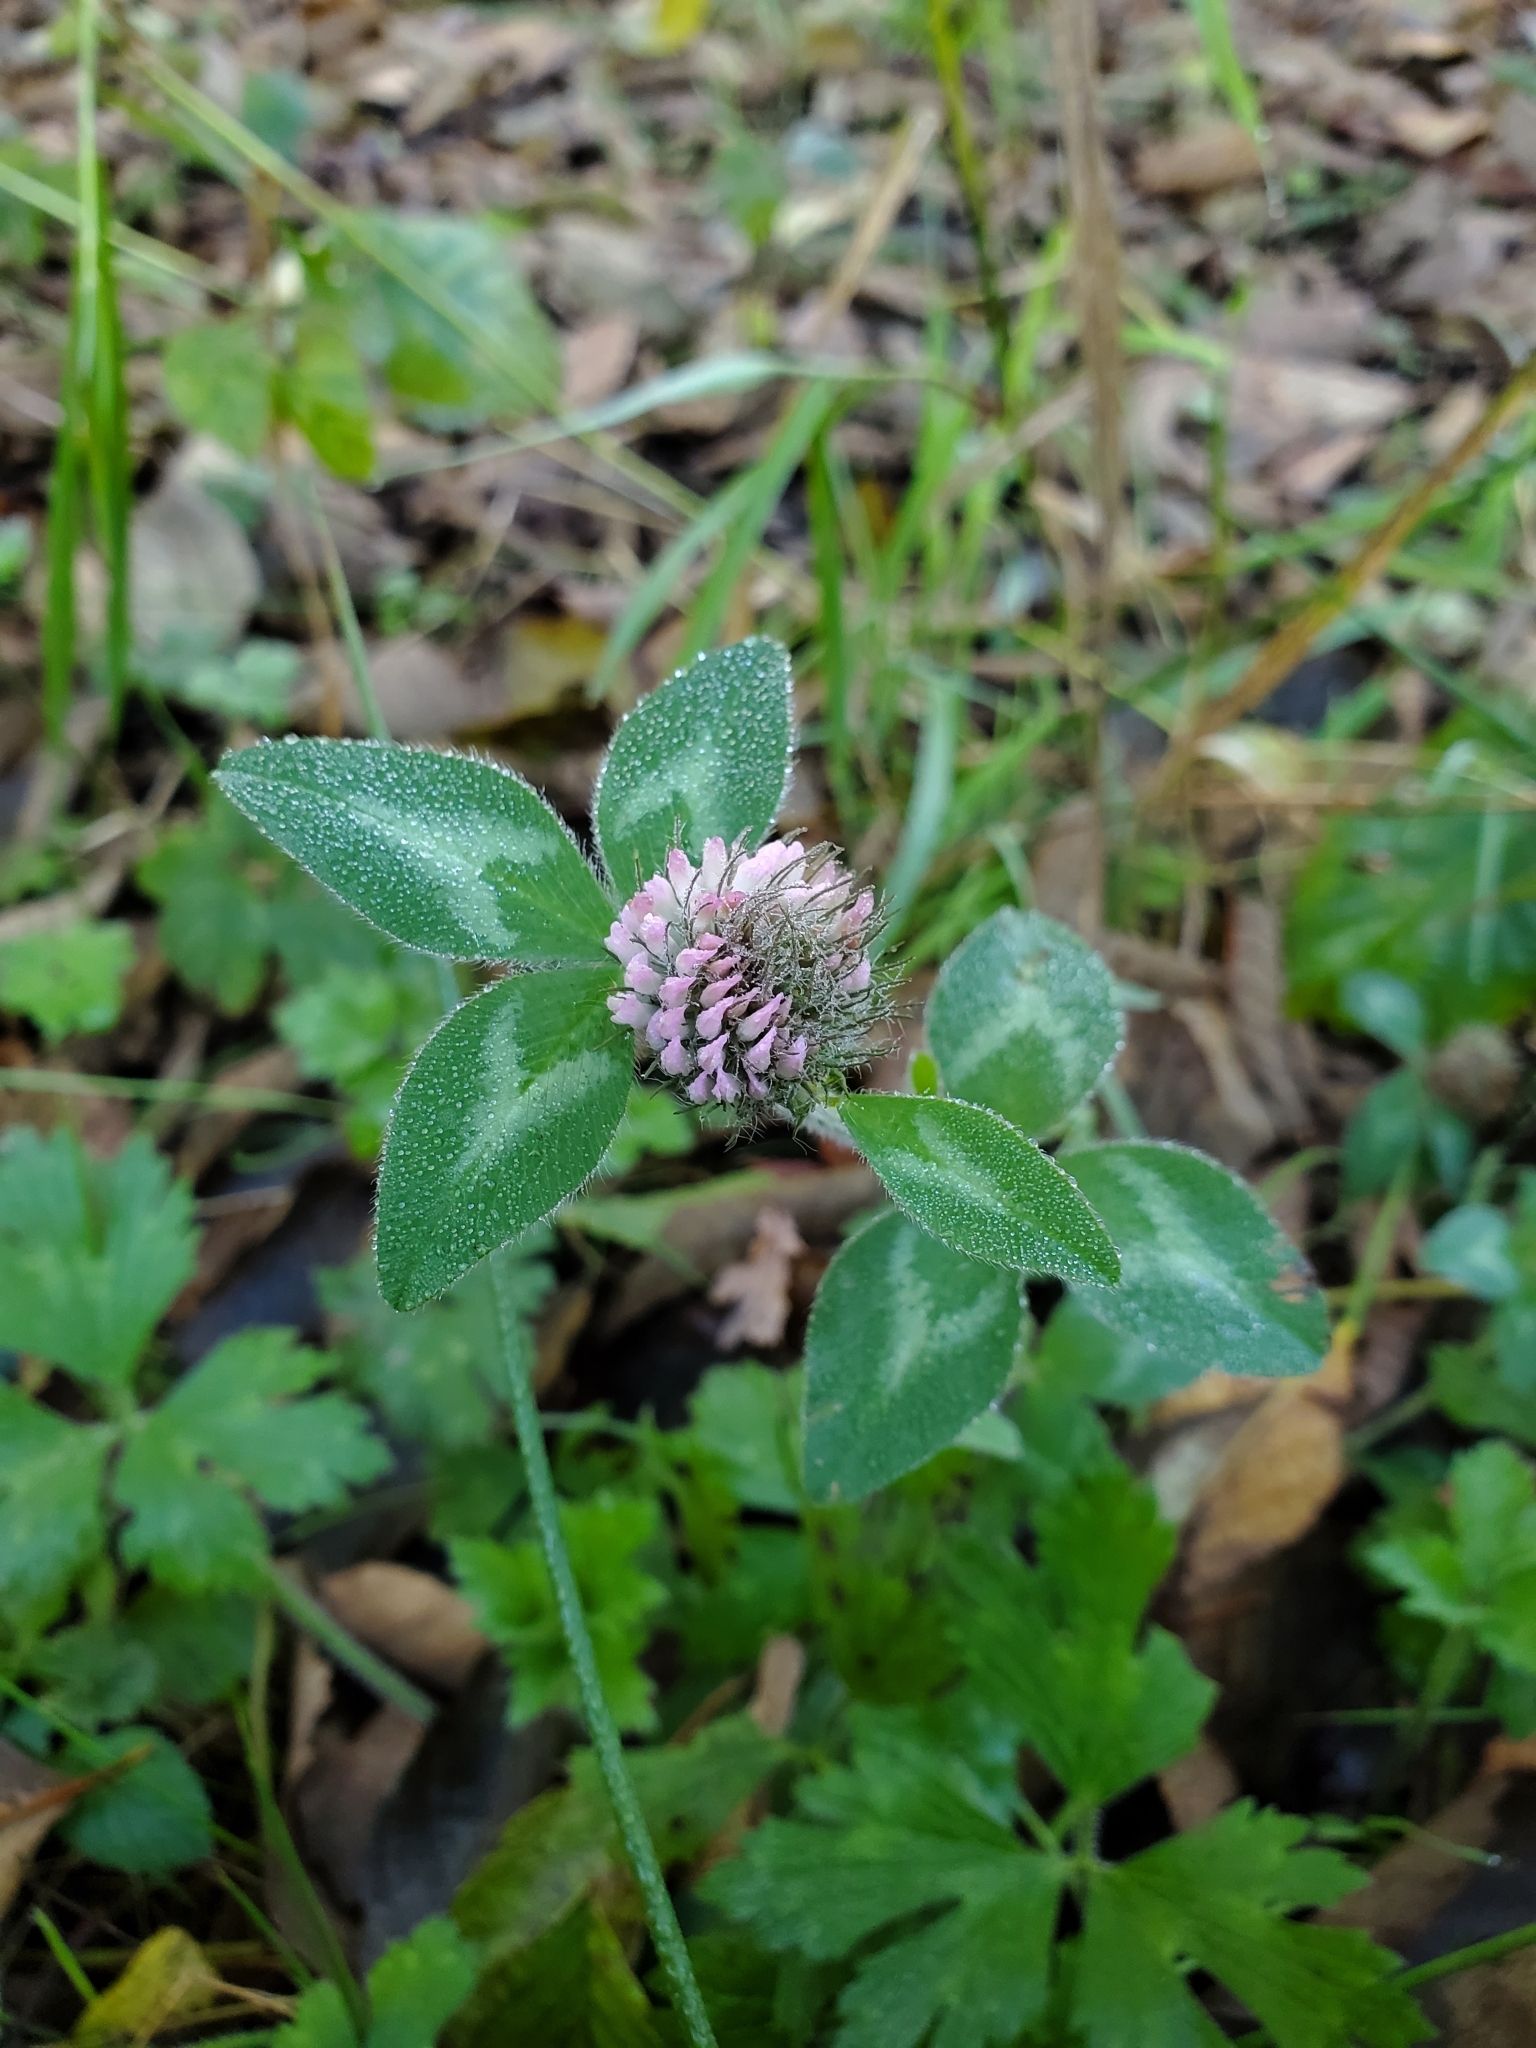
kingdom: Plantae
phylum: Tracheophyta
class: Magnoliopsida
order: Fabales
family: Fabaceae
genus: Trifolium
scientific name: Trifolium pratense
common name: Red clover
